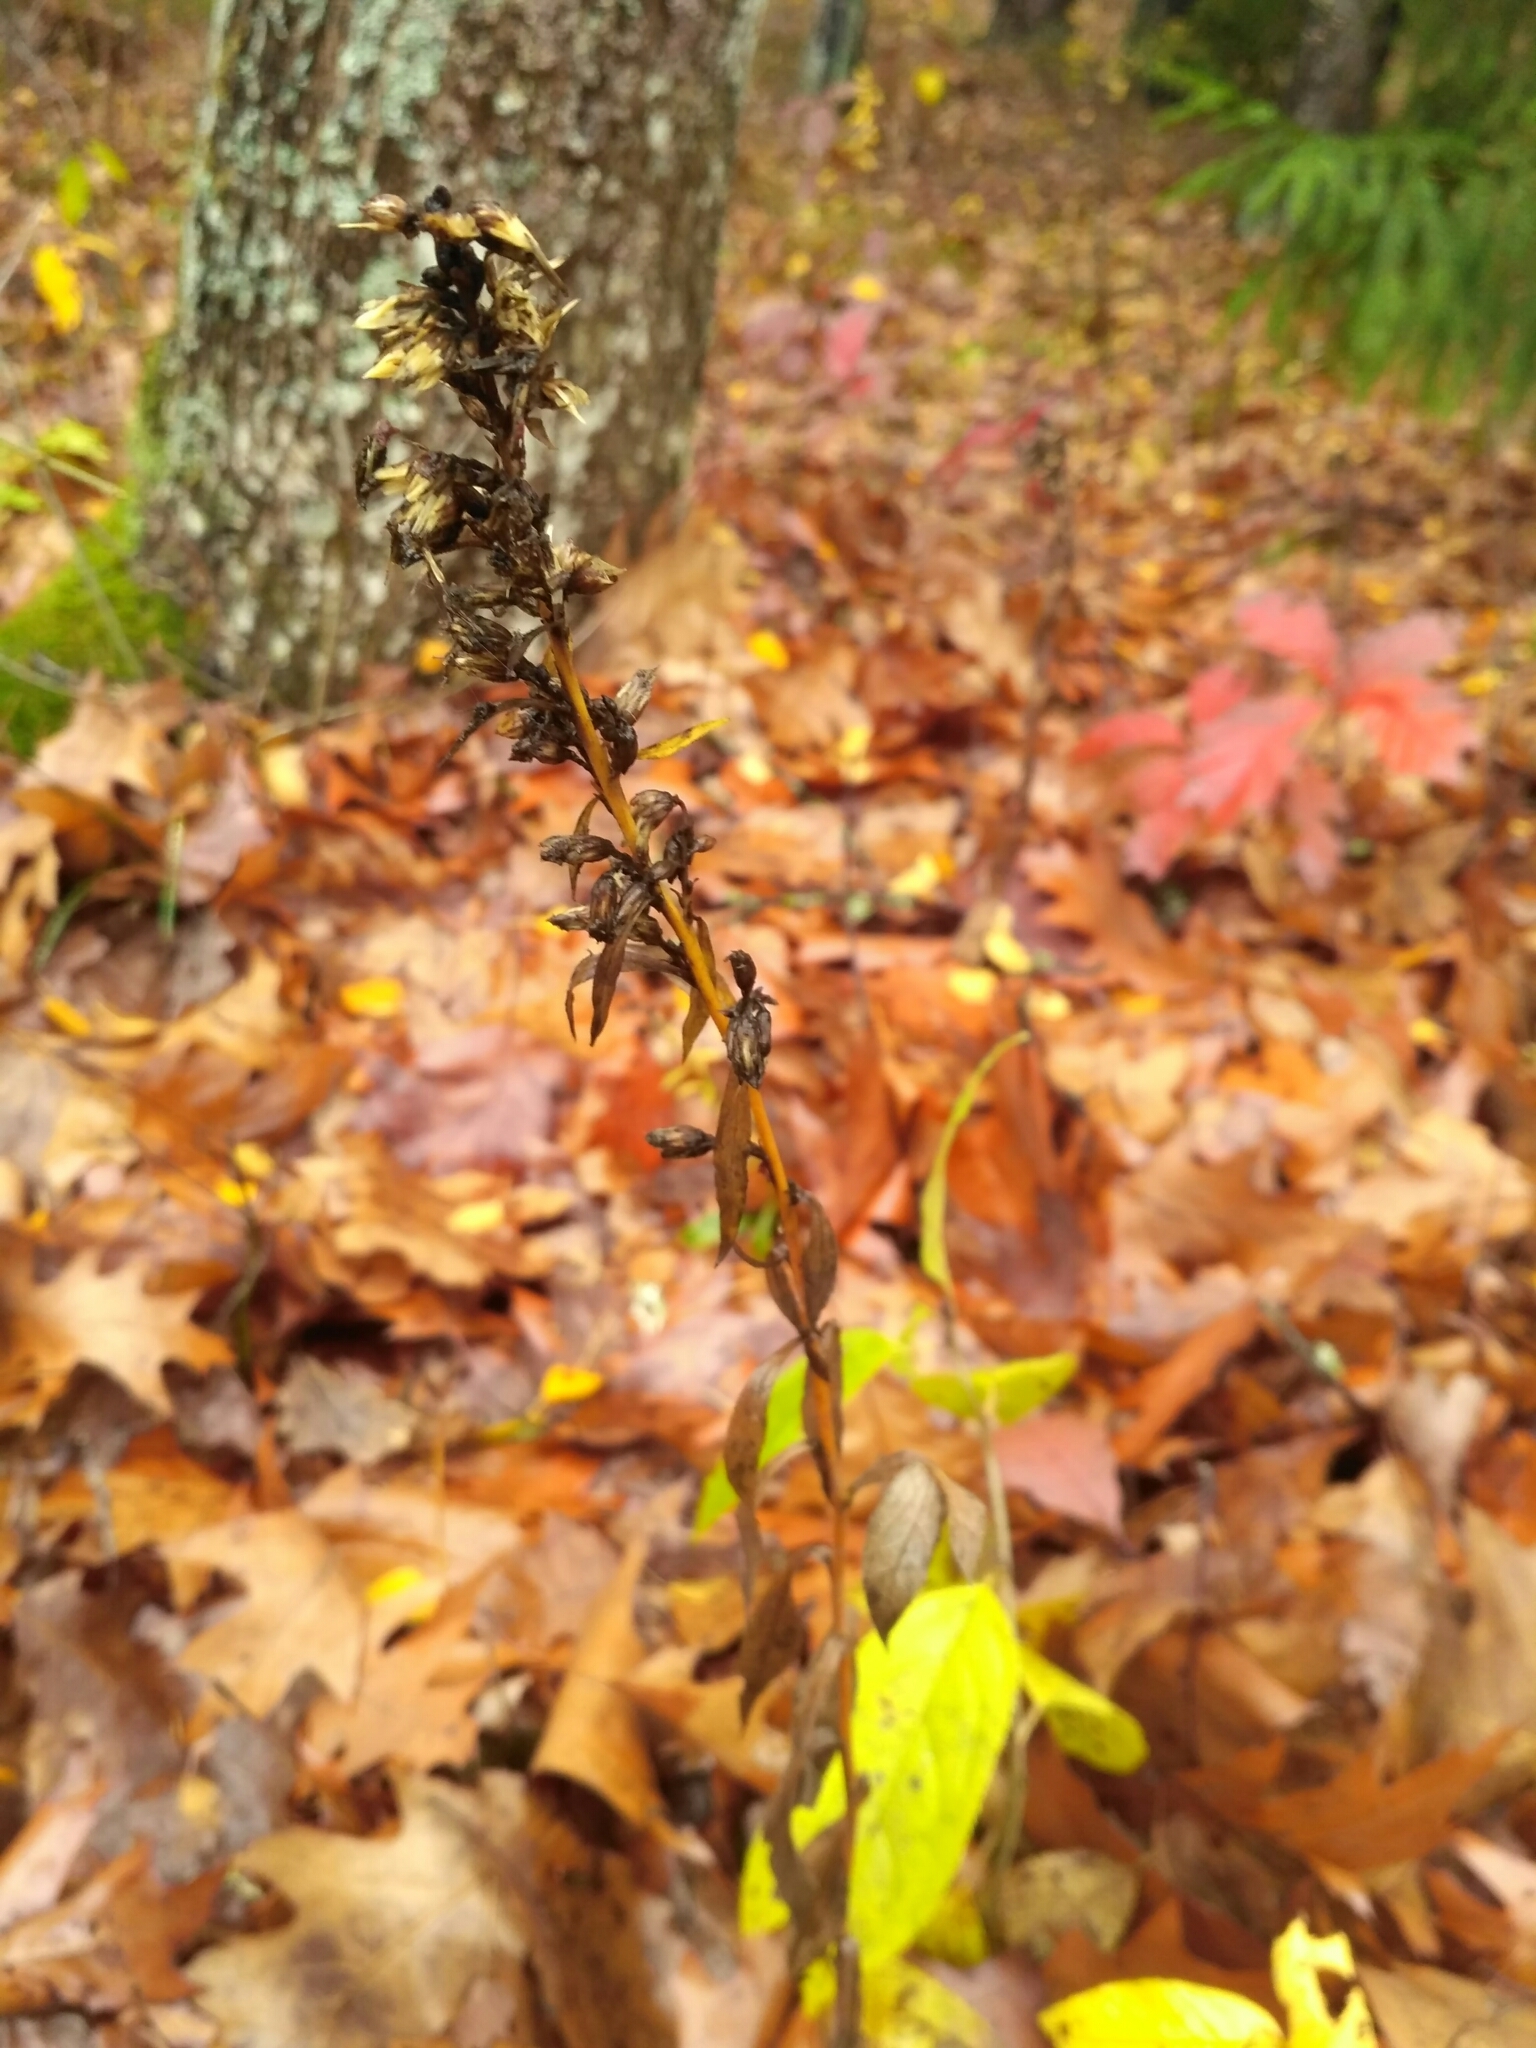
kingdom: Plantae
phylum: Tracheophyta
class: Magnoliopsida
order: Asterales
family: Asteraceae
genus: Solidago
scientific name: Solidago virgaurea
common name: Goldenrod
